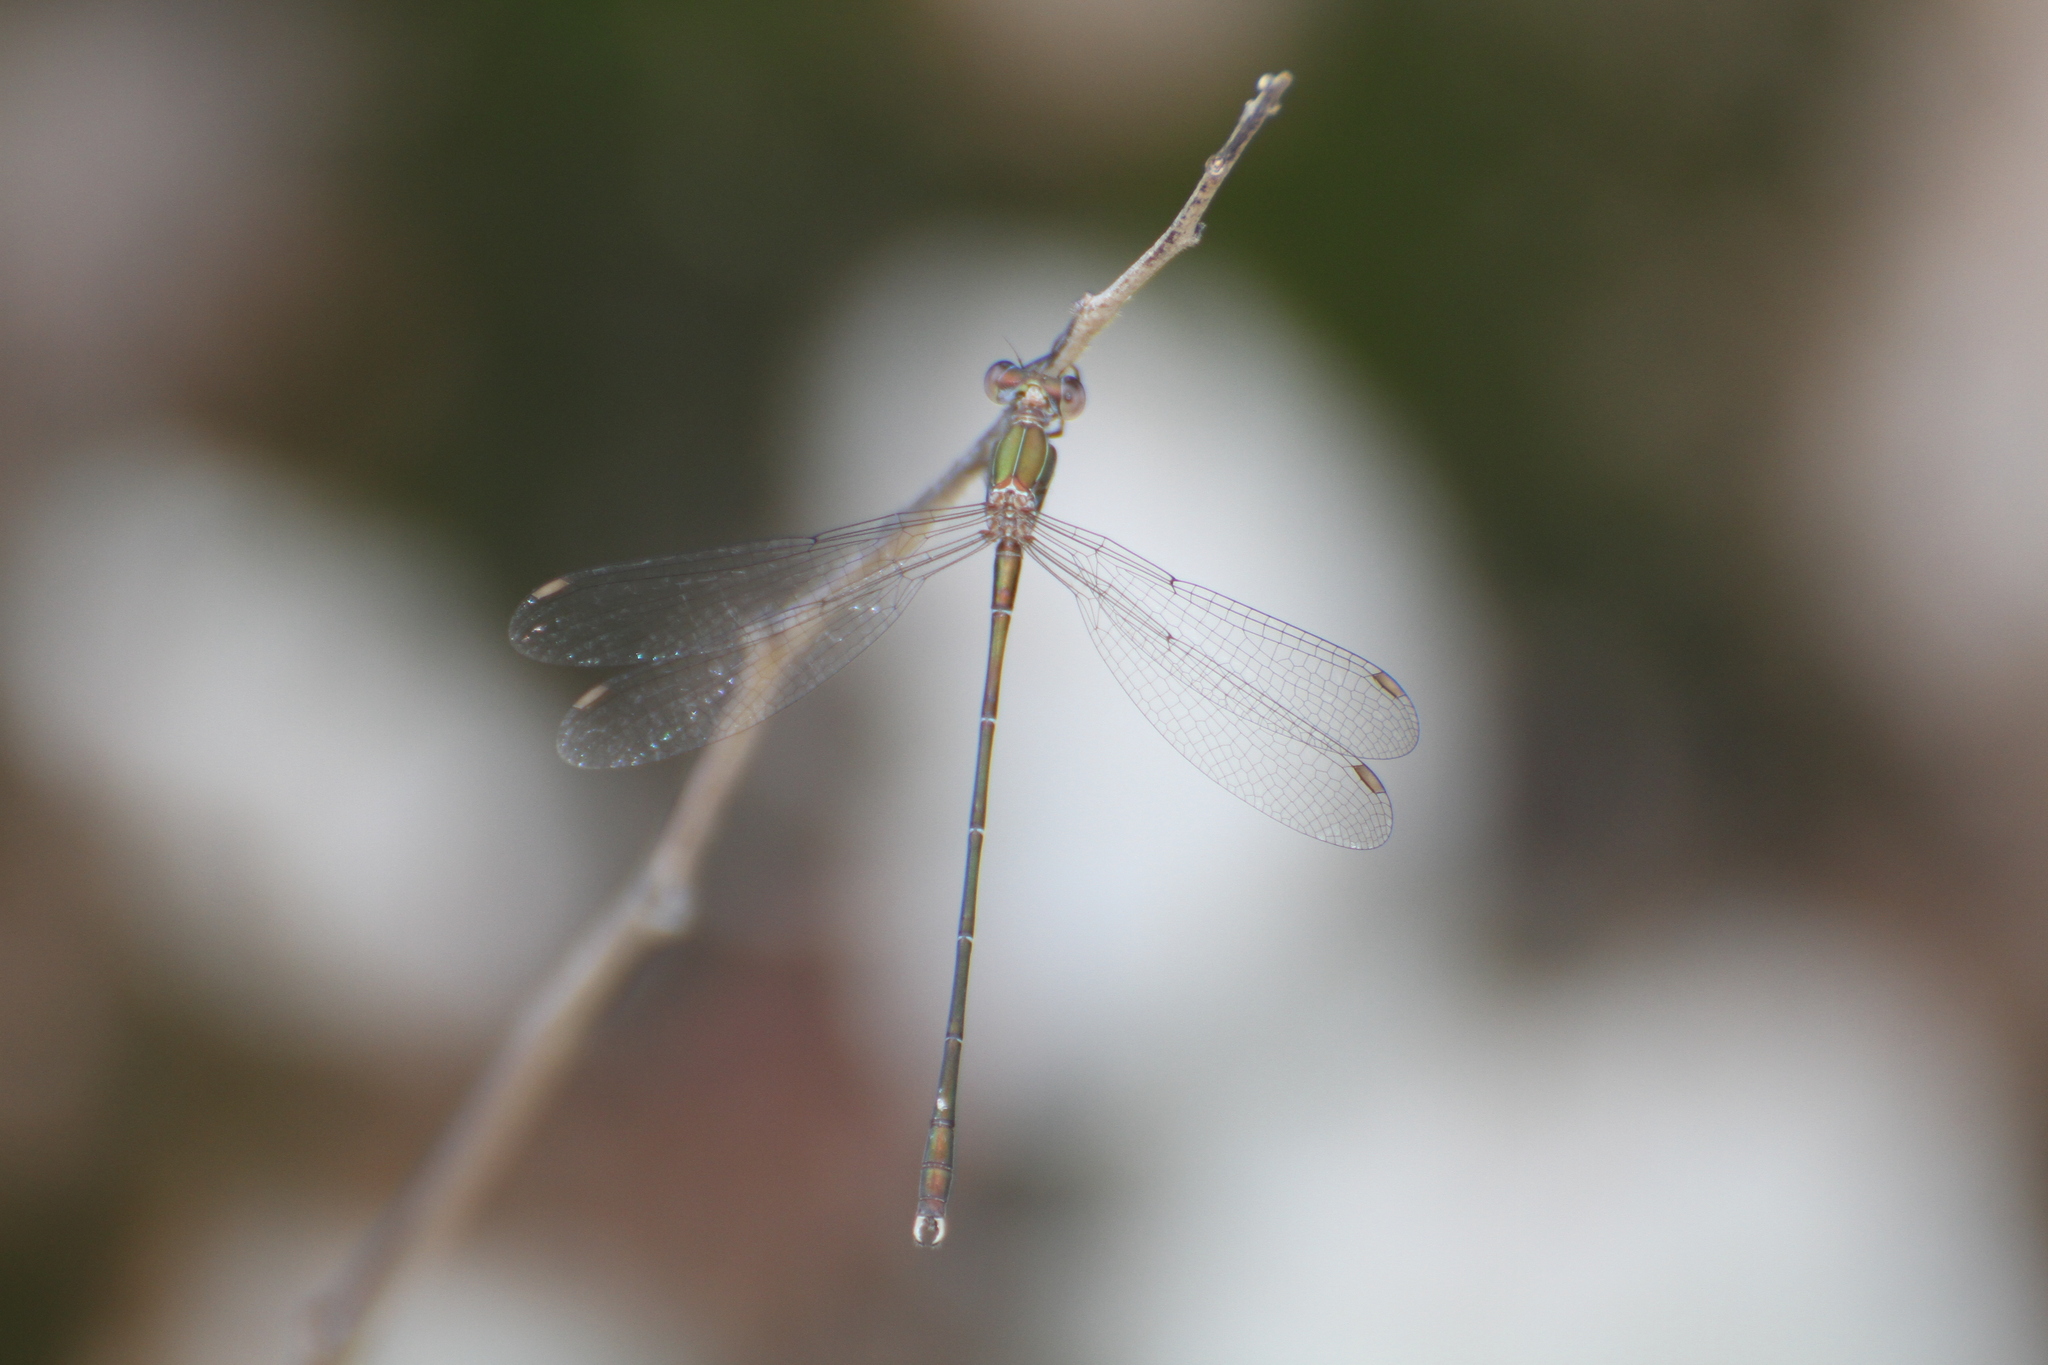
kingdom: Animalia
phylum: Arthropoda
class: Insecta
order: Odonata
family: Lestidae
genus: Chalcolestes
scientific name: Chalcolestes viridis
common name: Green emerald damselfly
